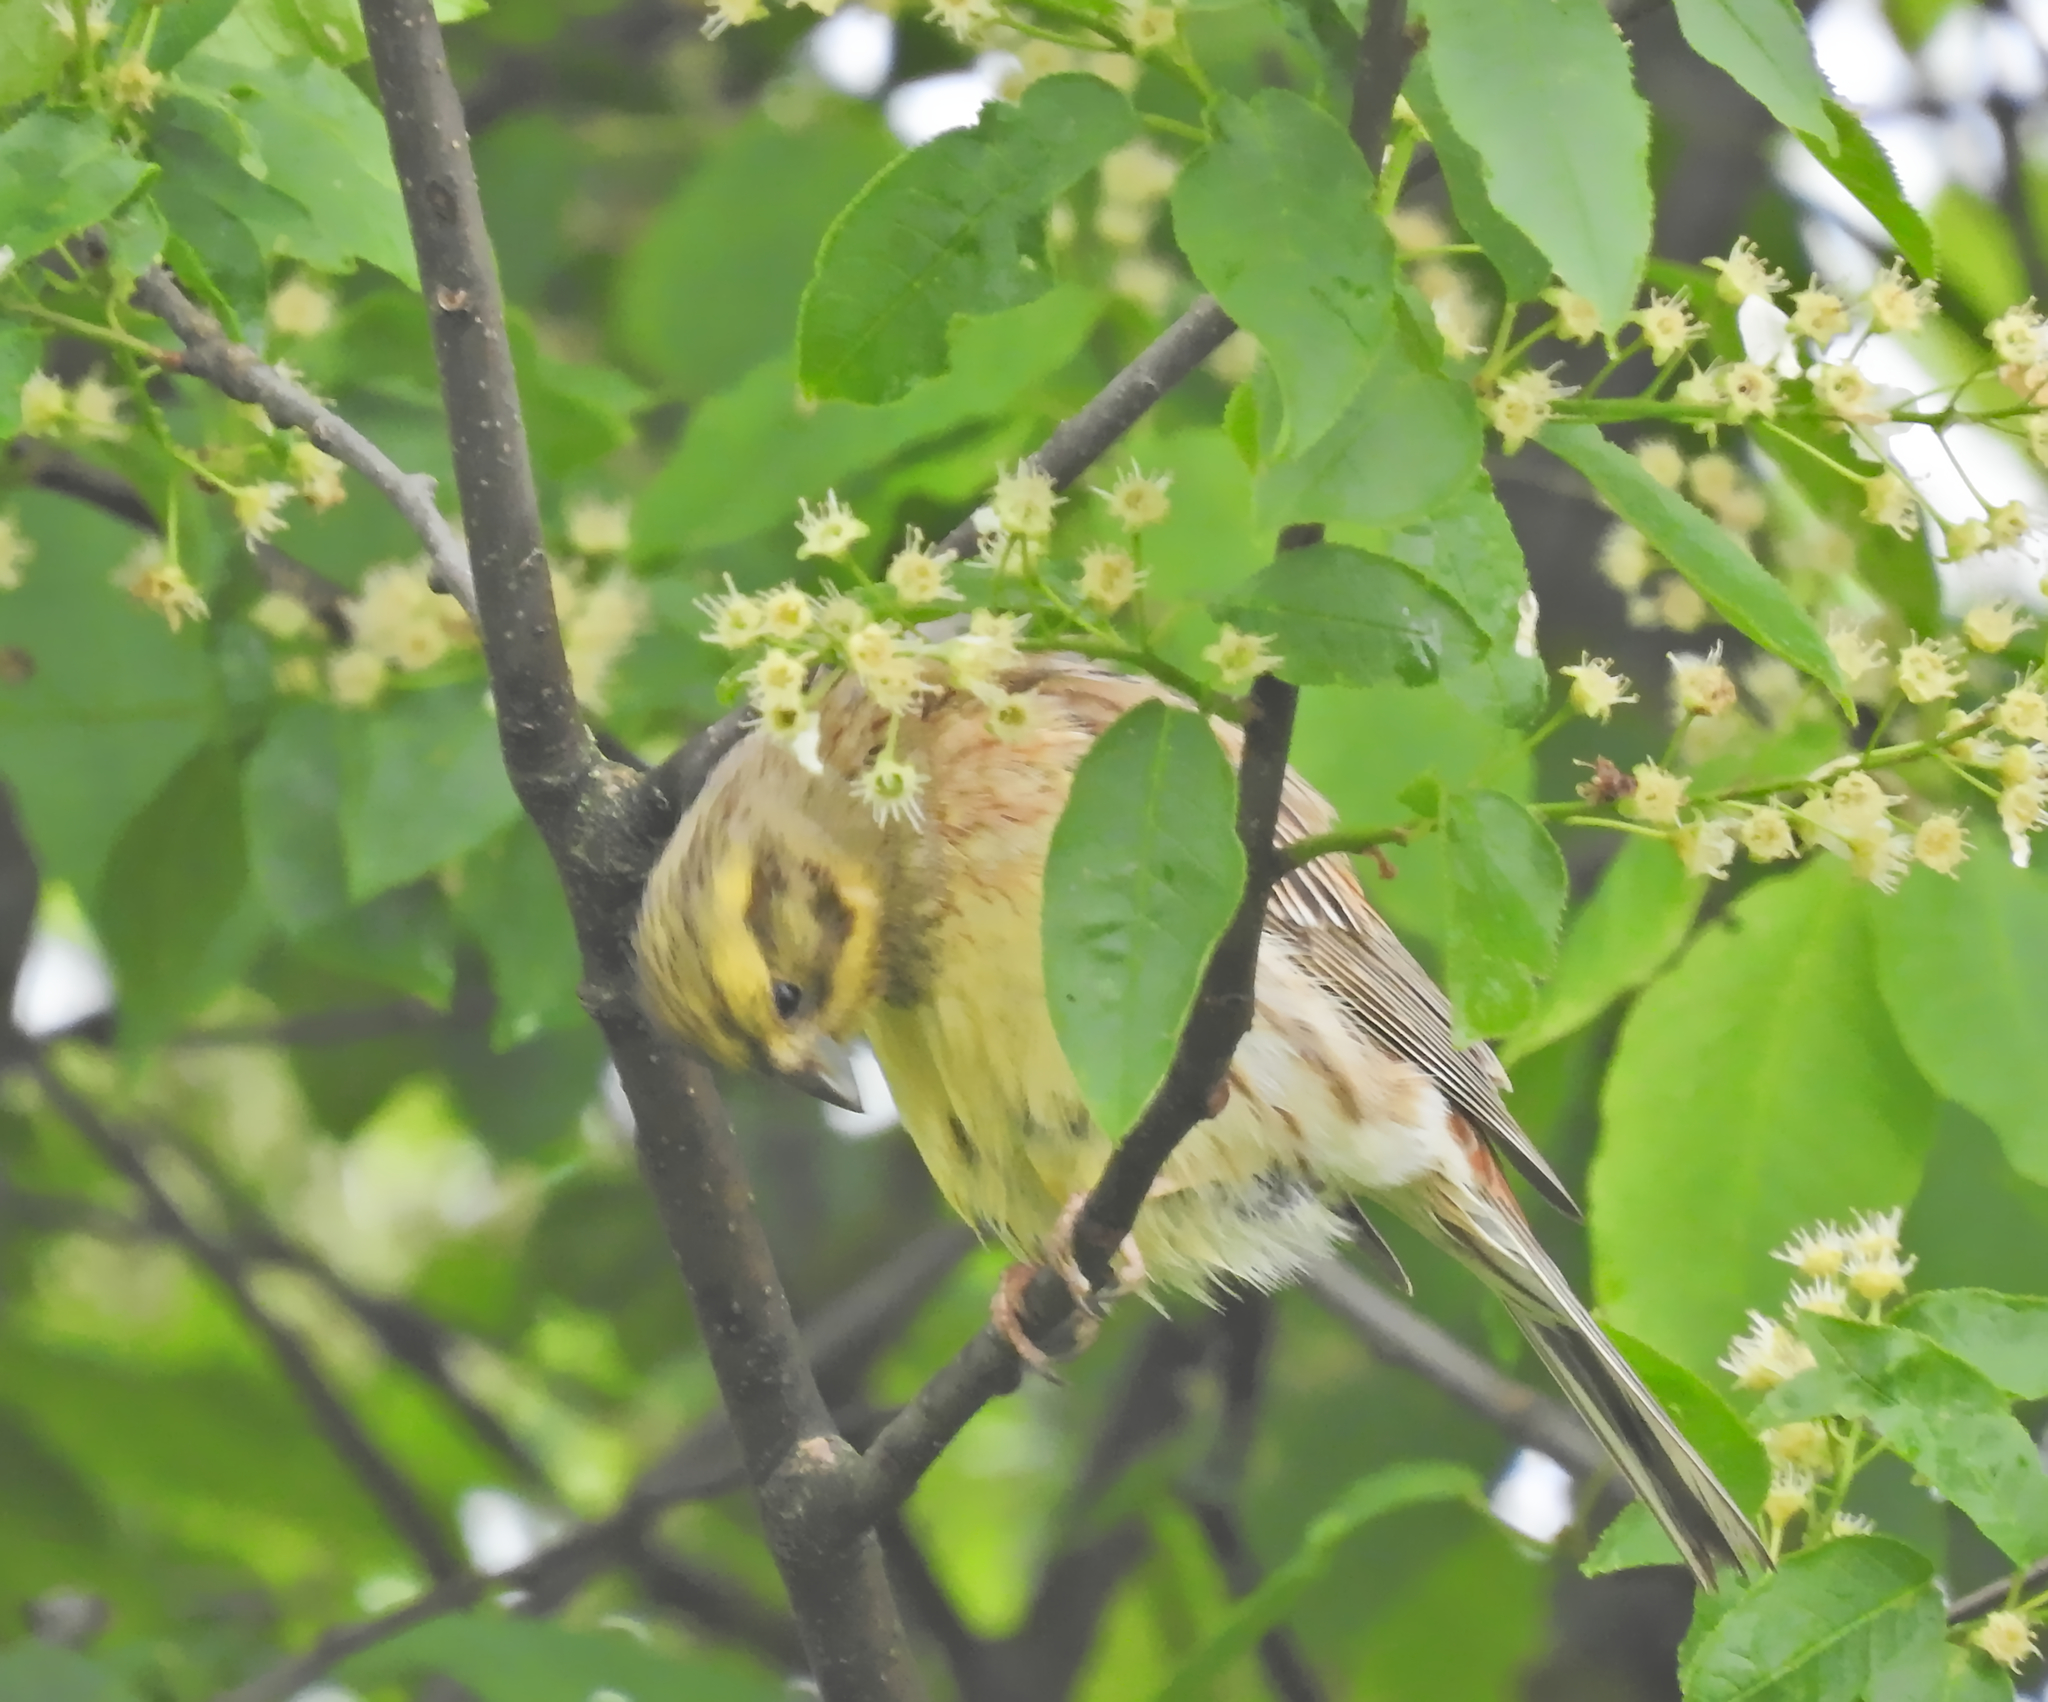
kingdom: Animalia
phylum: Chordata
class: Aves
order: Passeriformes
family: Emberizidae
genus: Emberiza
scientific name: Emberiza citrinella
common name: Yellowhammer
